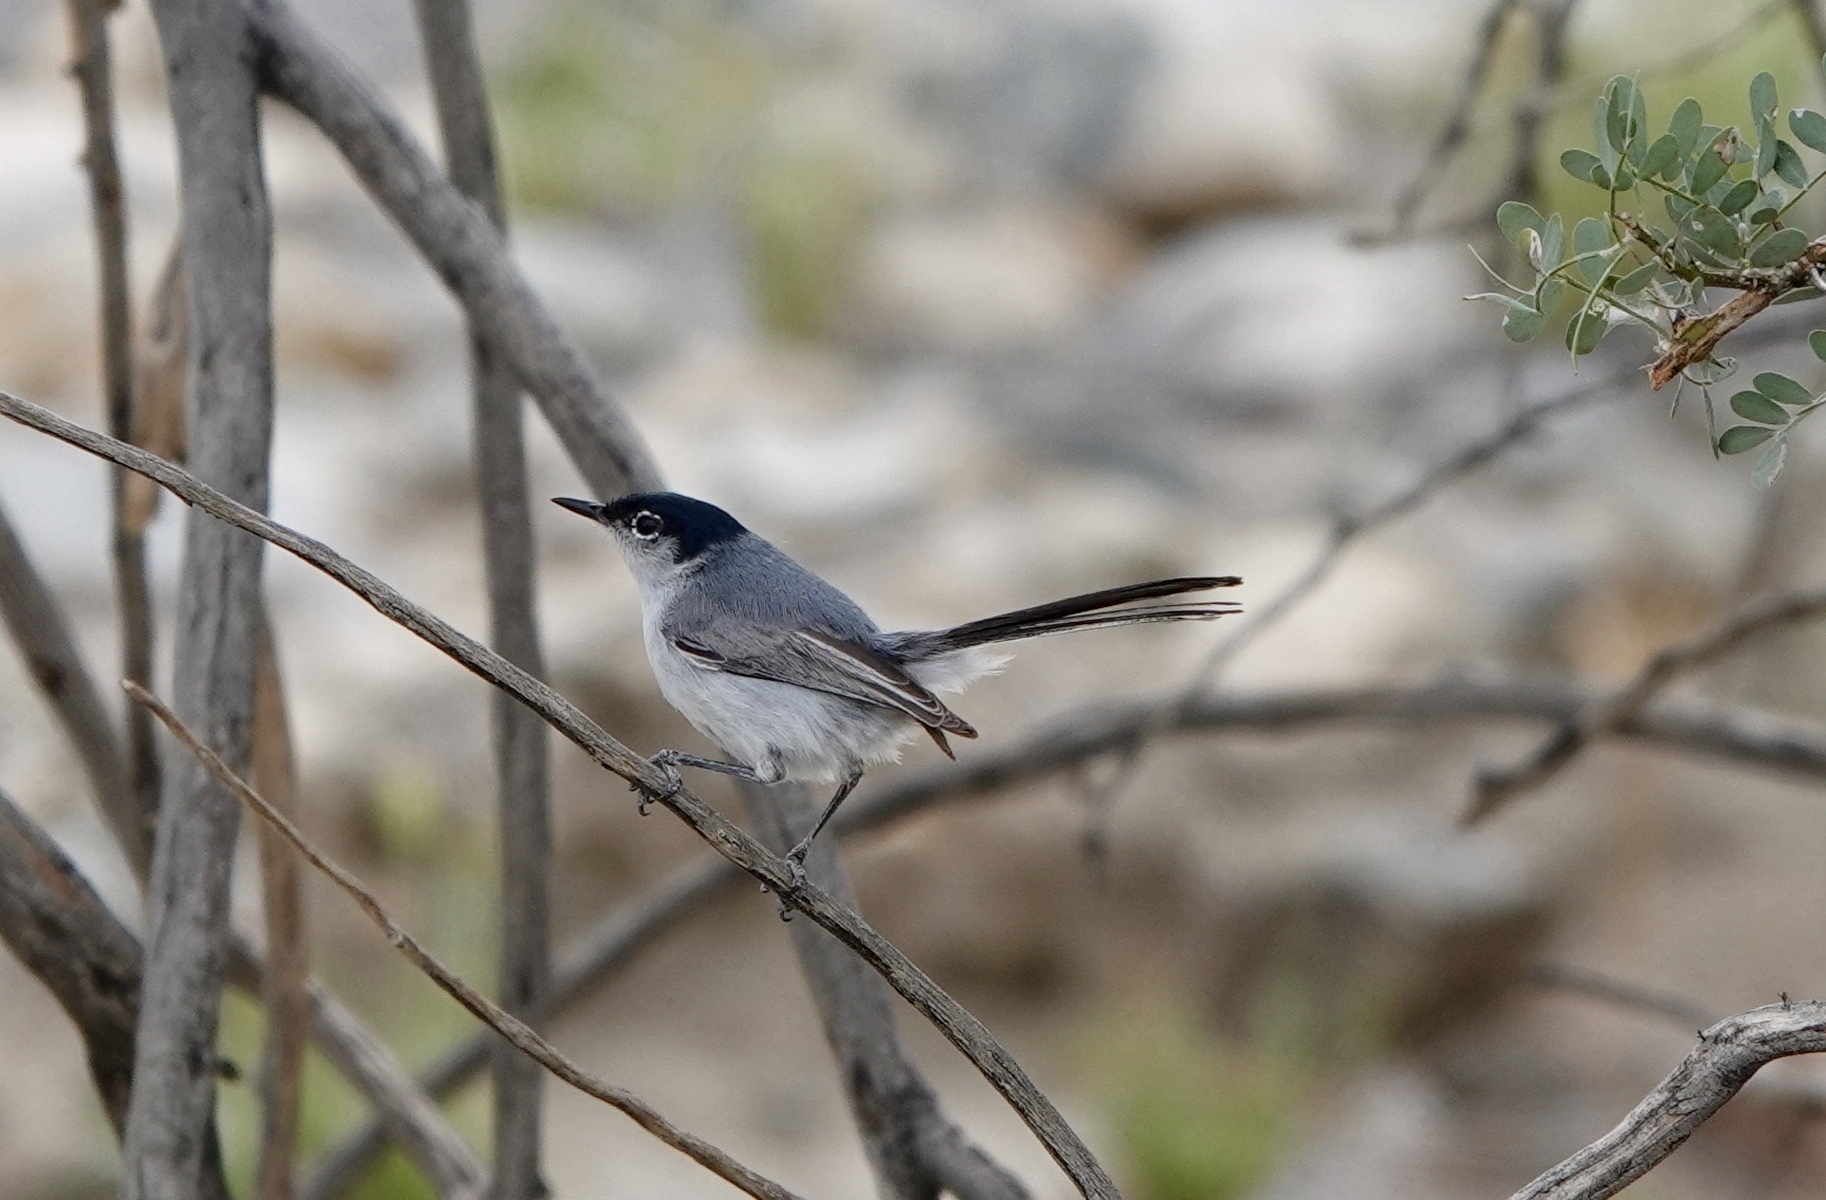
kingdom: Animalia
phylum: Chordata
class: Aves
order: Passeriformes
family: Polioptilidae
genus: Polioptila
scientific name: Polioptila melanura
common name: Black-tailed gnatcatcher
